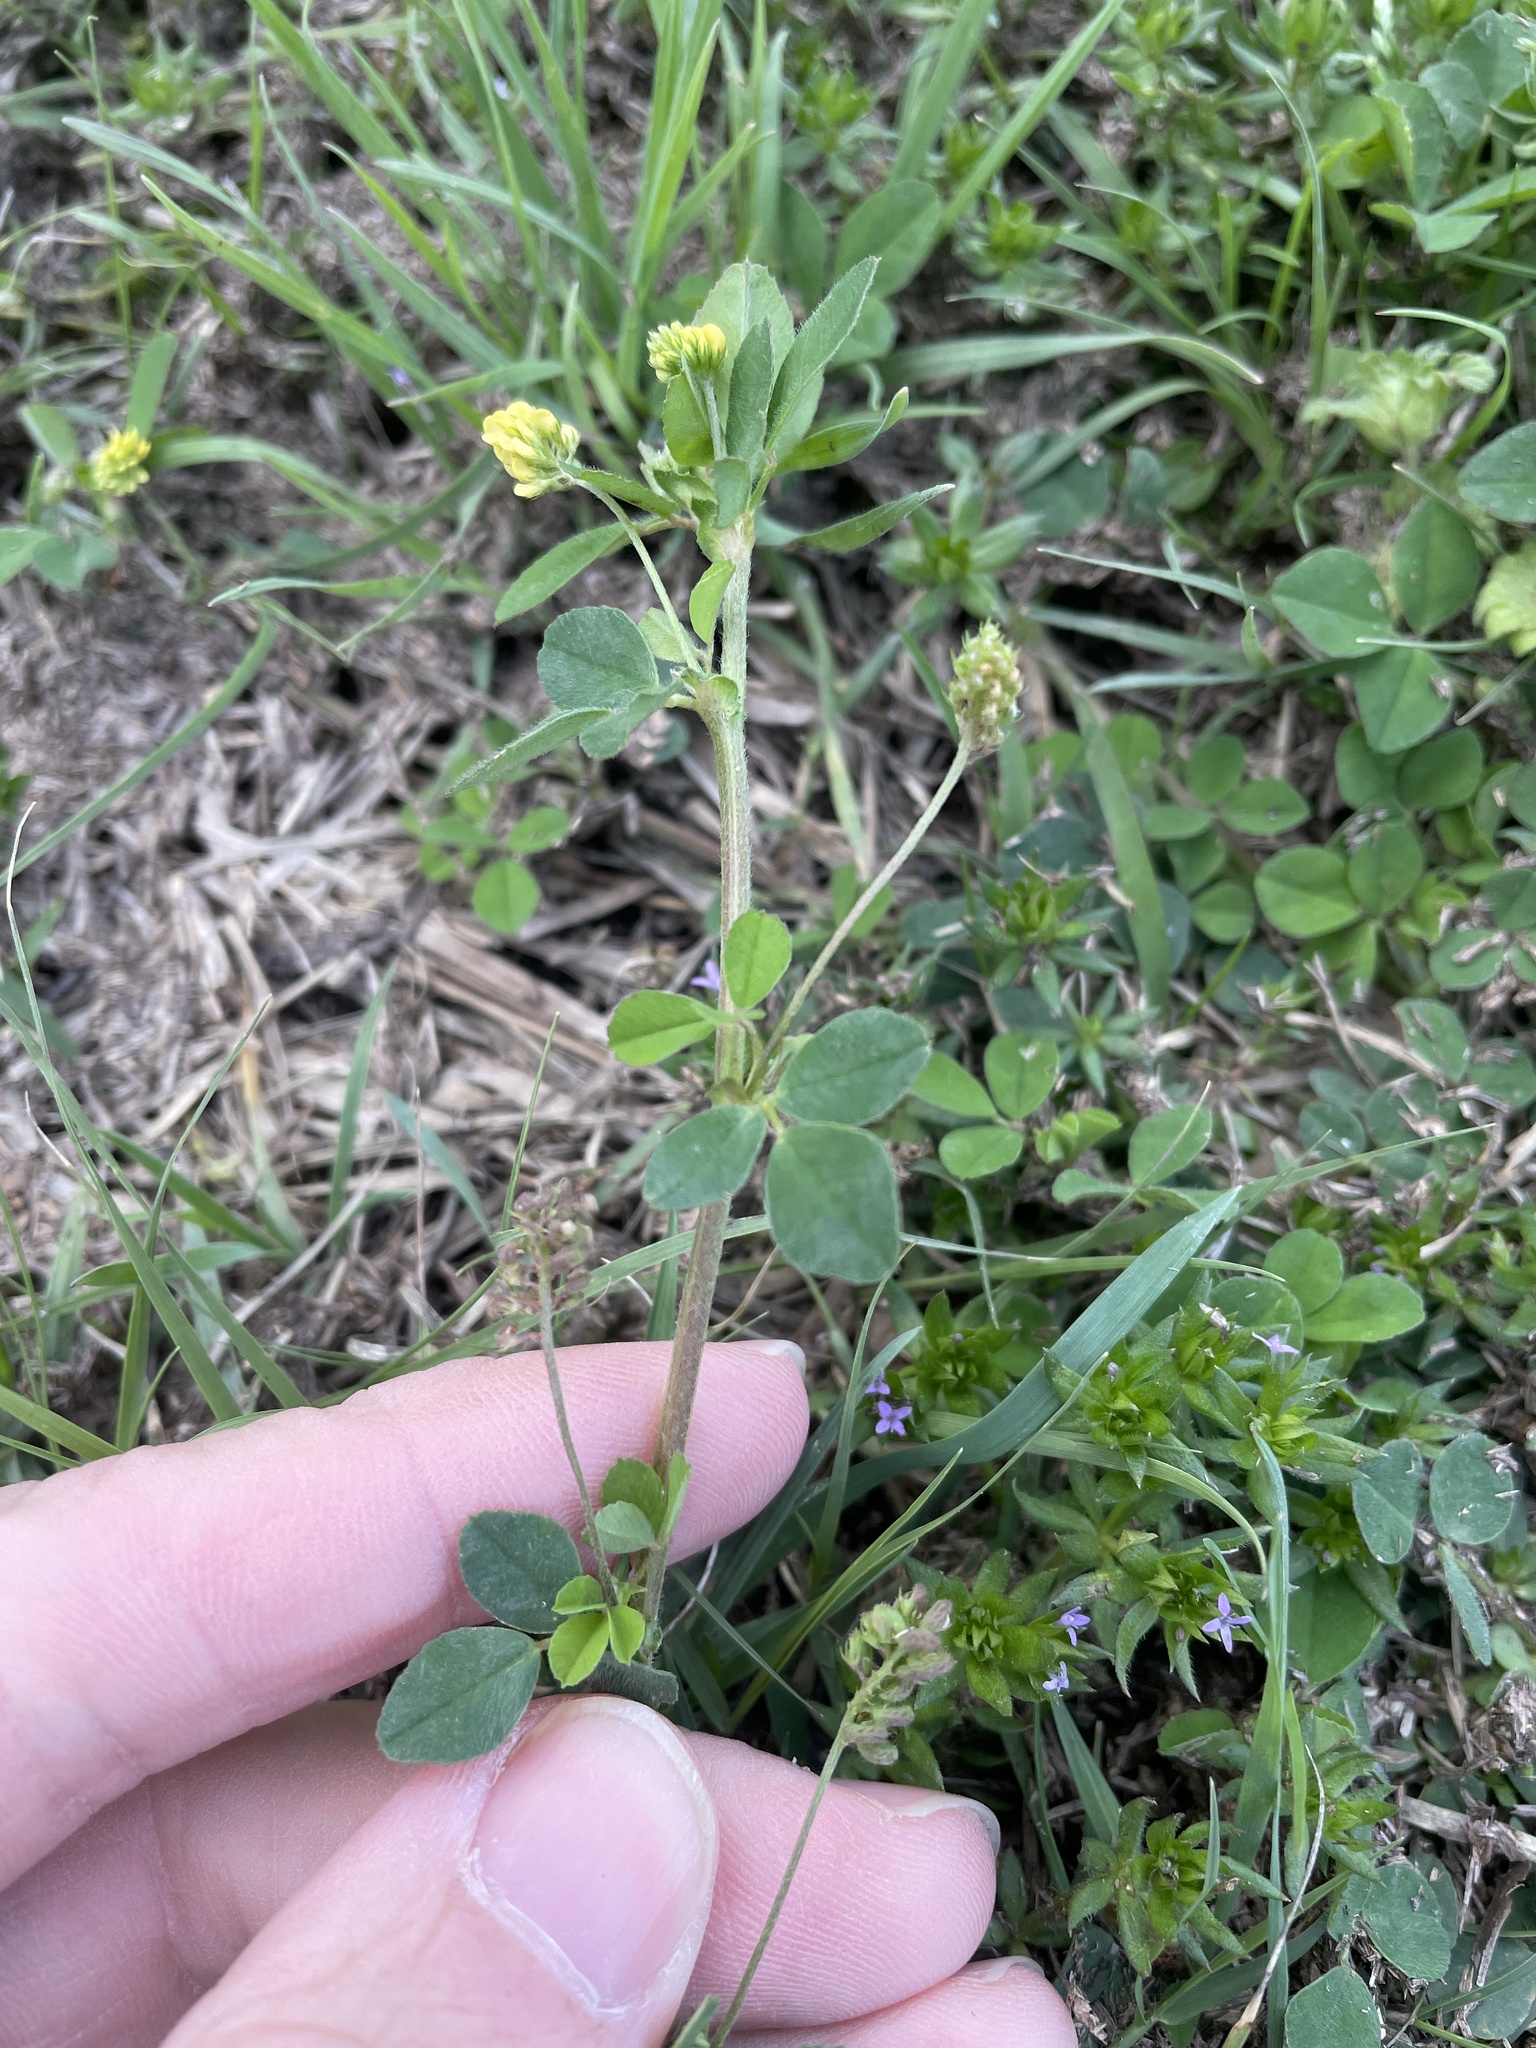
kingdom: Plantae
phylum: Tracheophyta
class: Magnoliopsida
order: Fabales
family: Fabaceae
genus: Medicago
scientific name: Medicago lupulina
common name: Black medick
